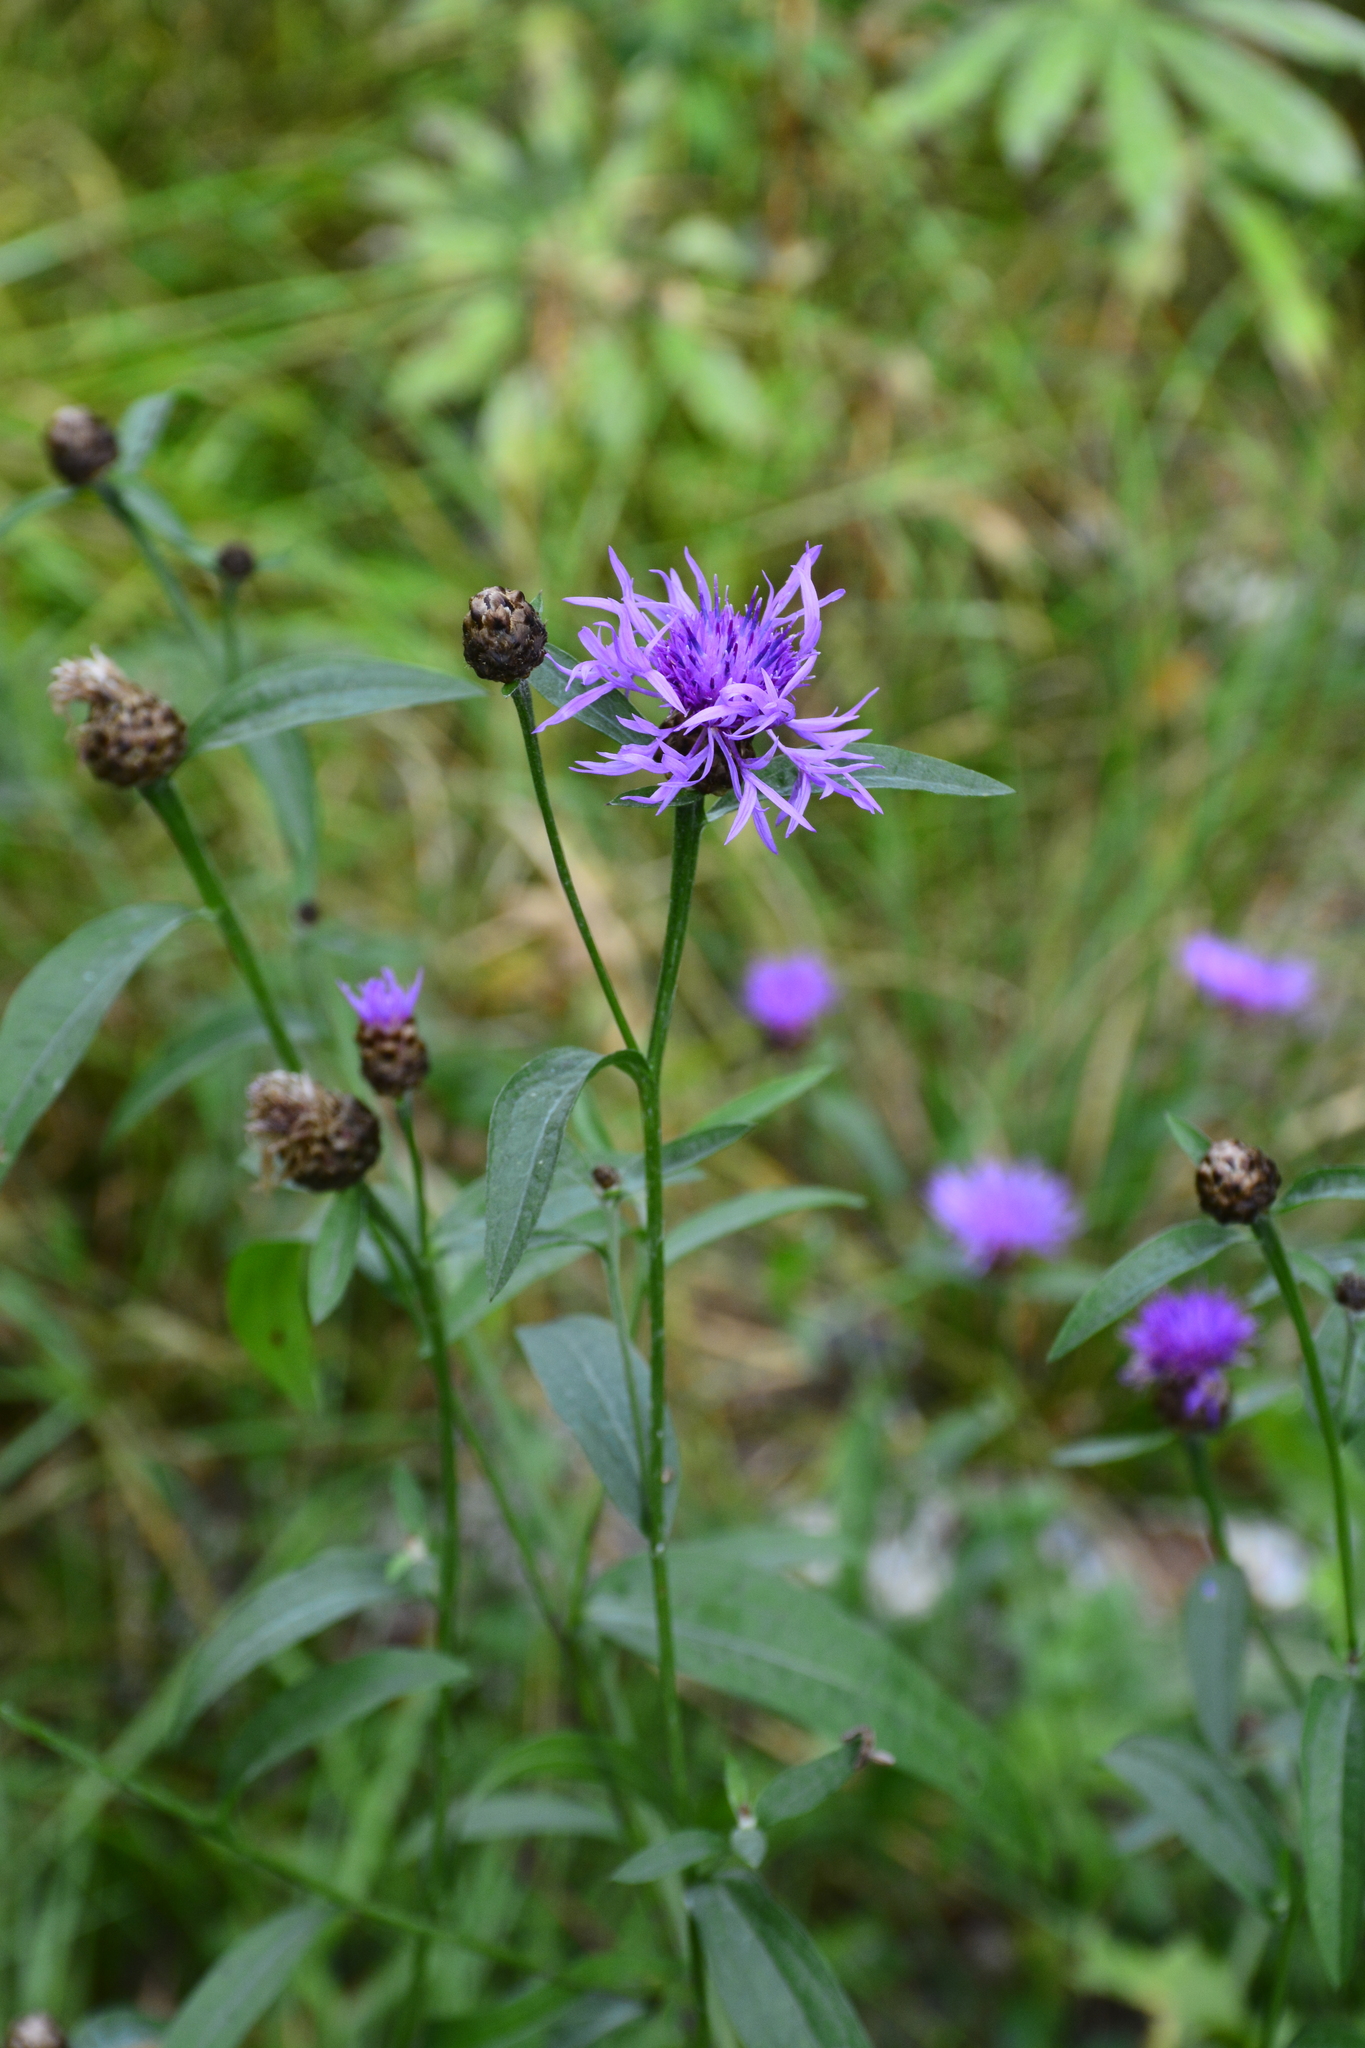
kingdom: Plantae
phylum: Tracheophyta
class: Magnoliopsida
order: Asterales
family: Asteraceae
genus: Centaurea
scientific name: Centaurea jacea
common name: Brown knapweed
